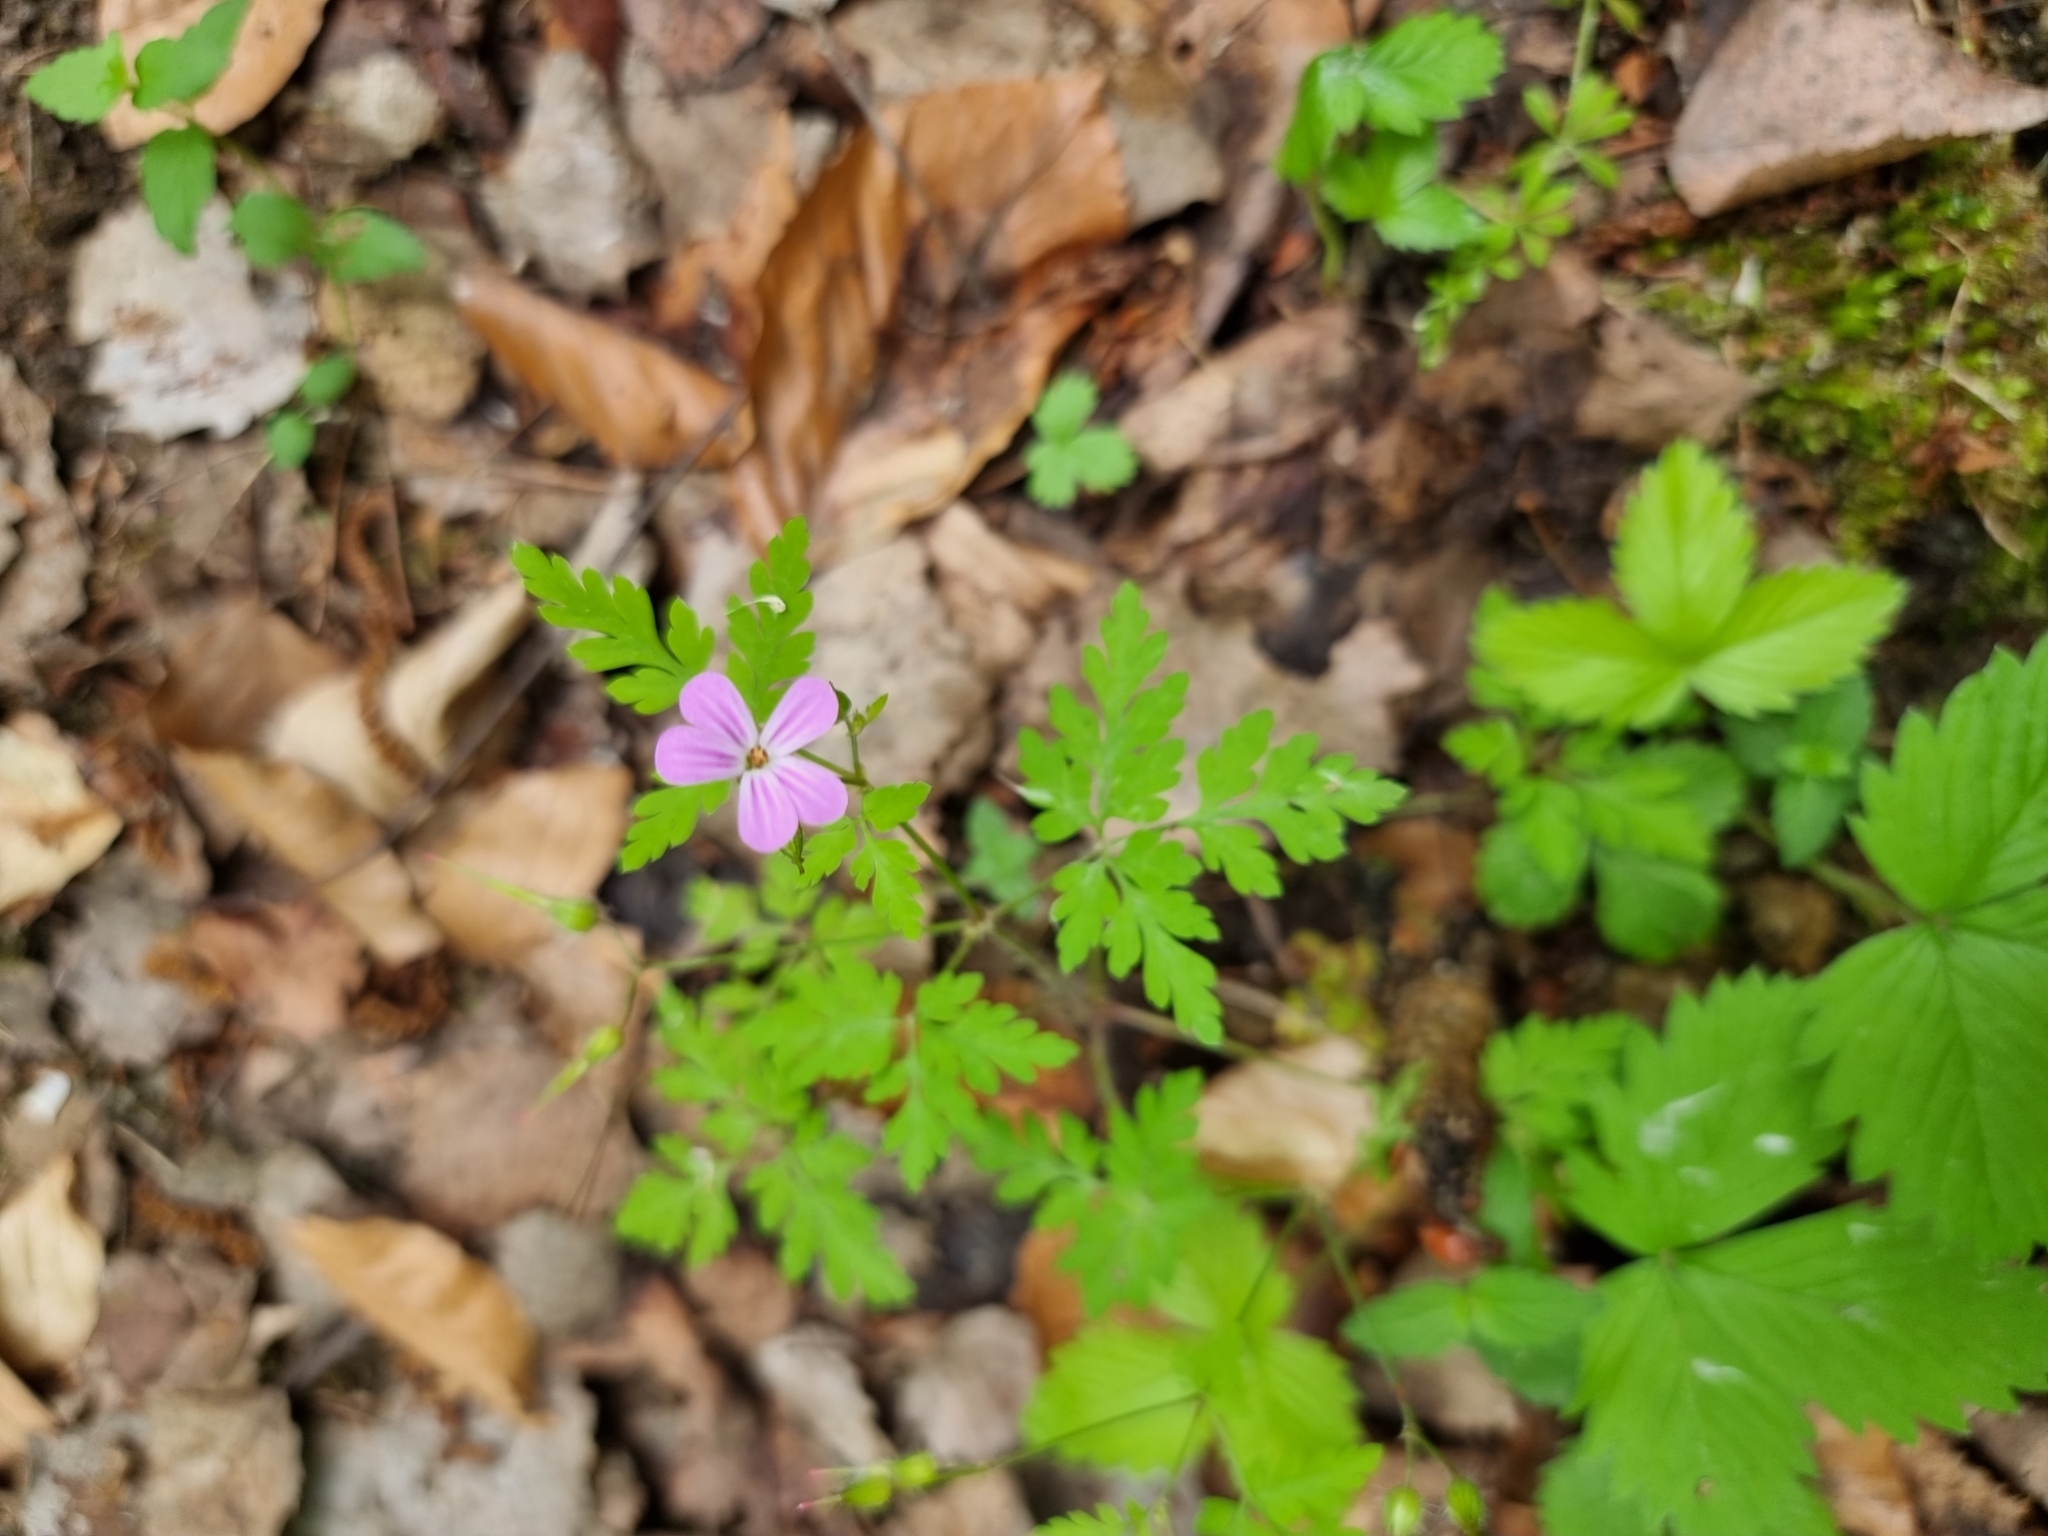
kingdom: Plantae
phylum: Tracheophyta
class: Magnoliopsida
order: Geraniales
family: Geraniaceae
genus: Geranium
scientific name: Geranium robertianum
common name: Herb-robert
